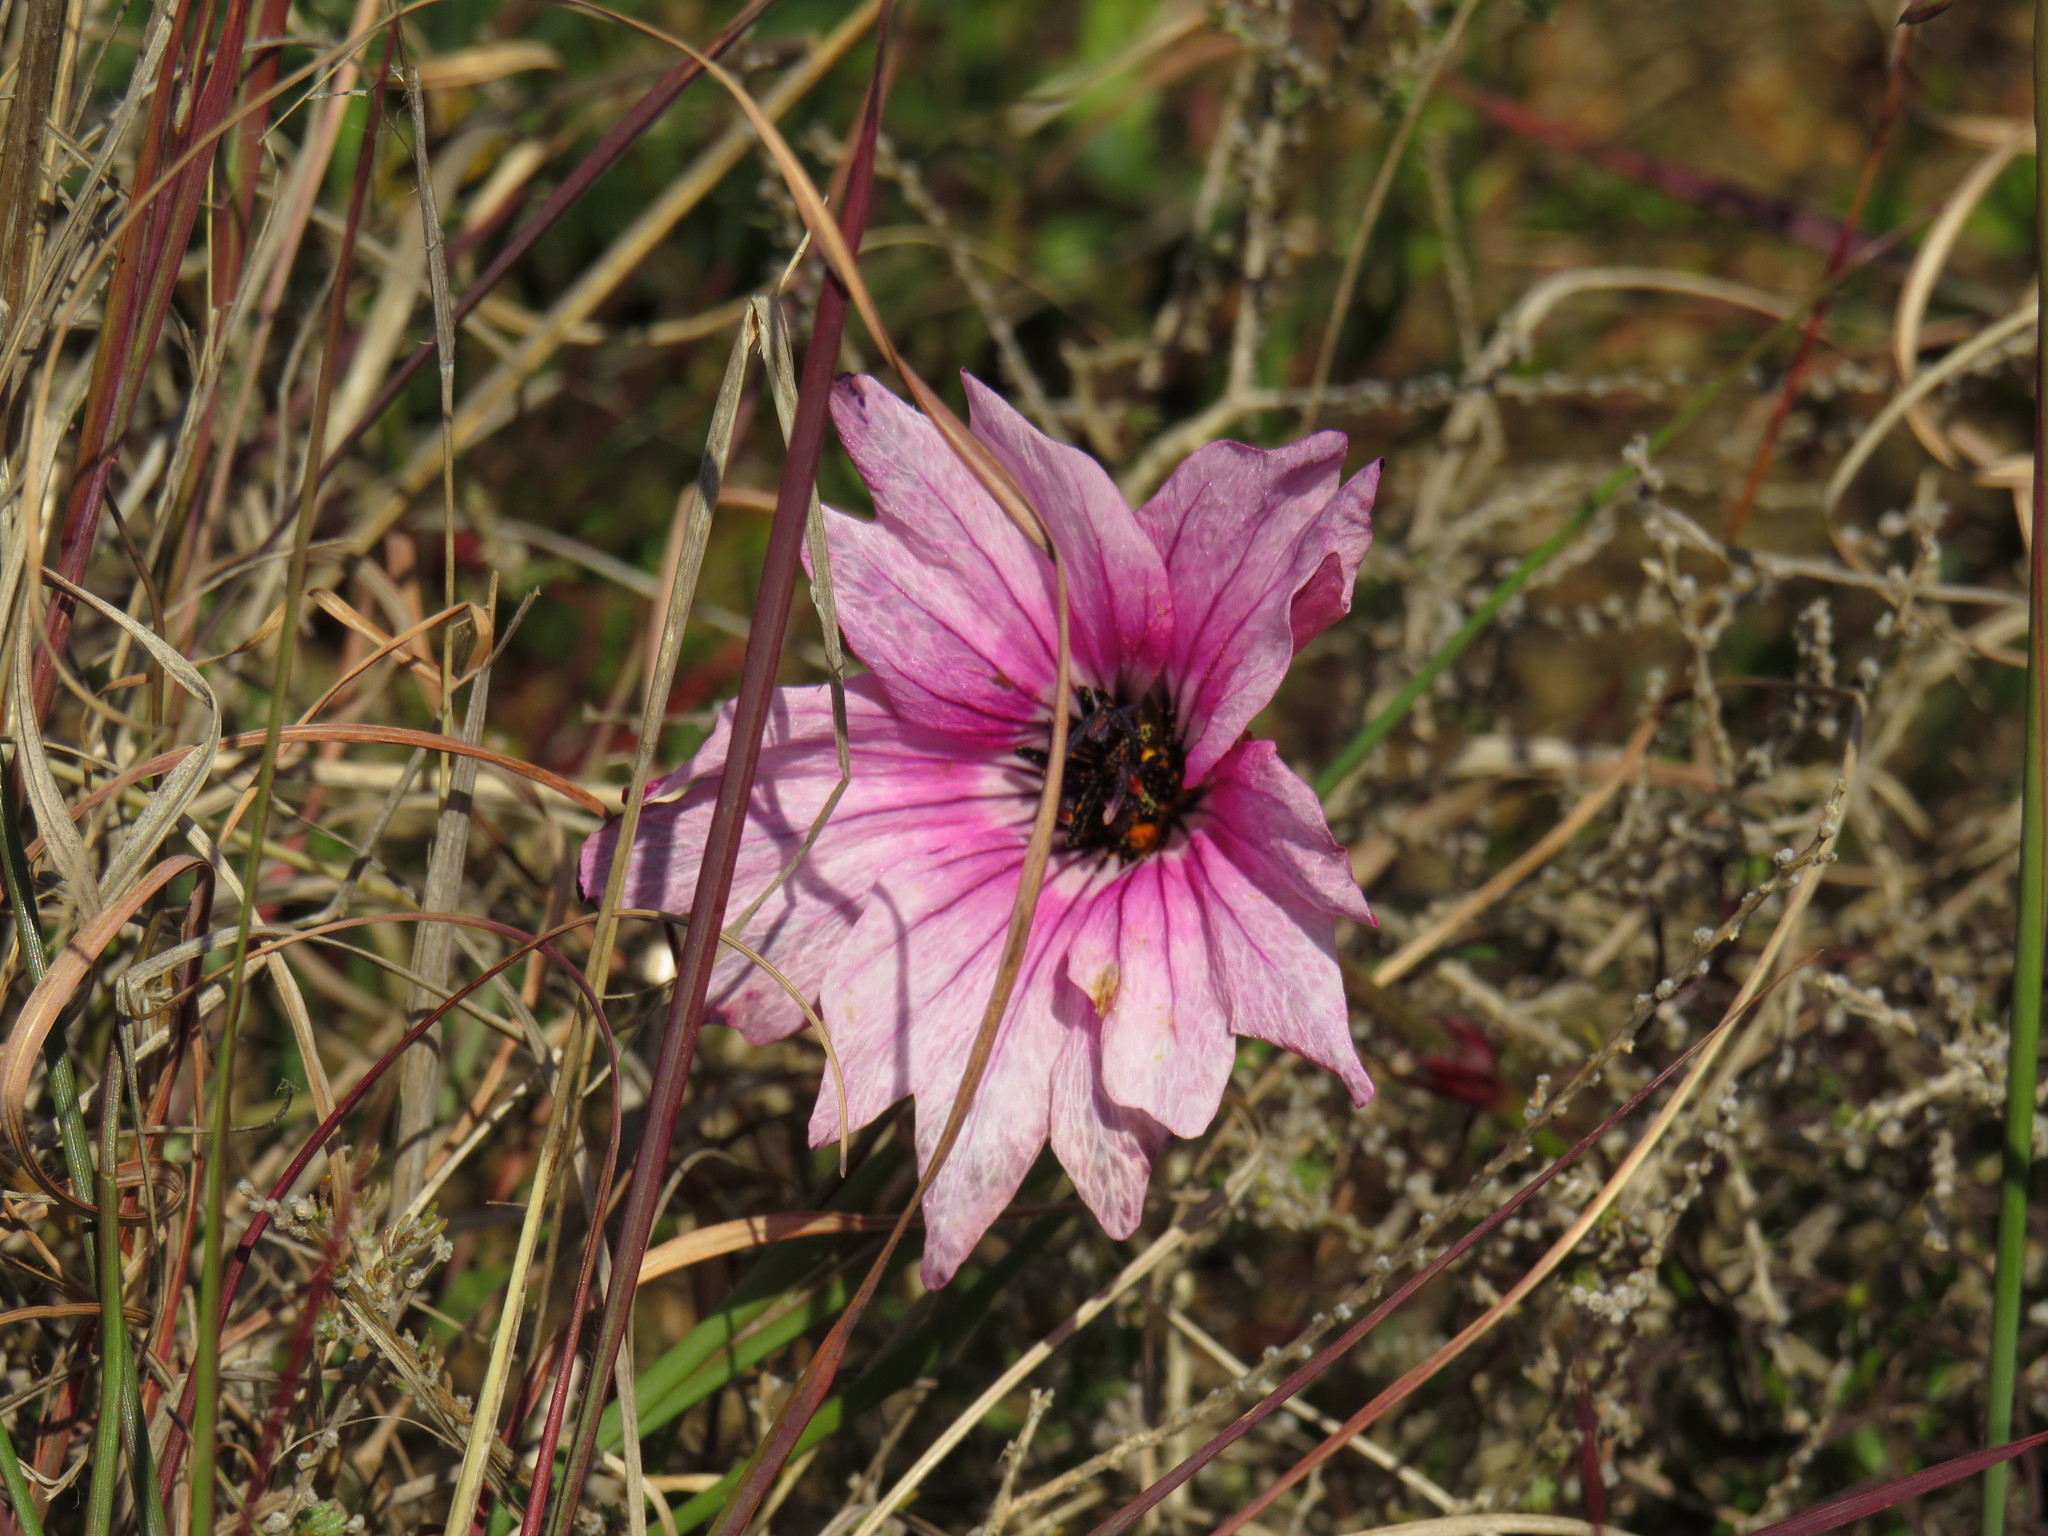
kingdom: Plantae
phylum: Tracheophyta
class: Magnoliopsida
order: Geraniales
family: Geraniaceae
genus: Monsonia
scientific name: Monsonia speciosa
